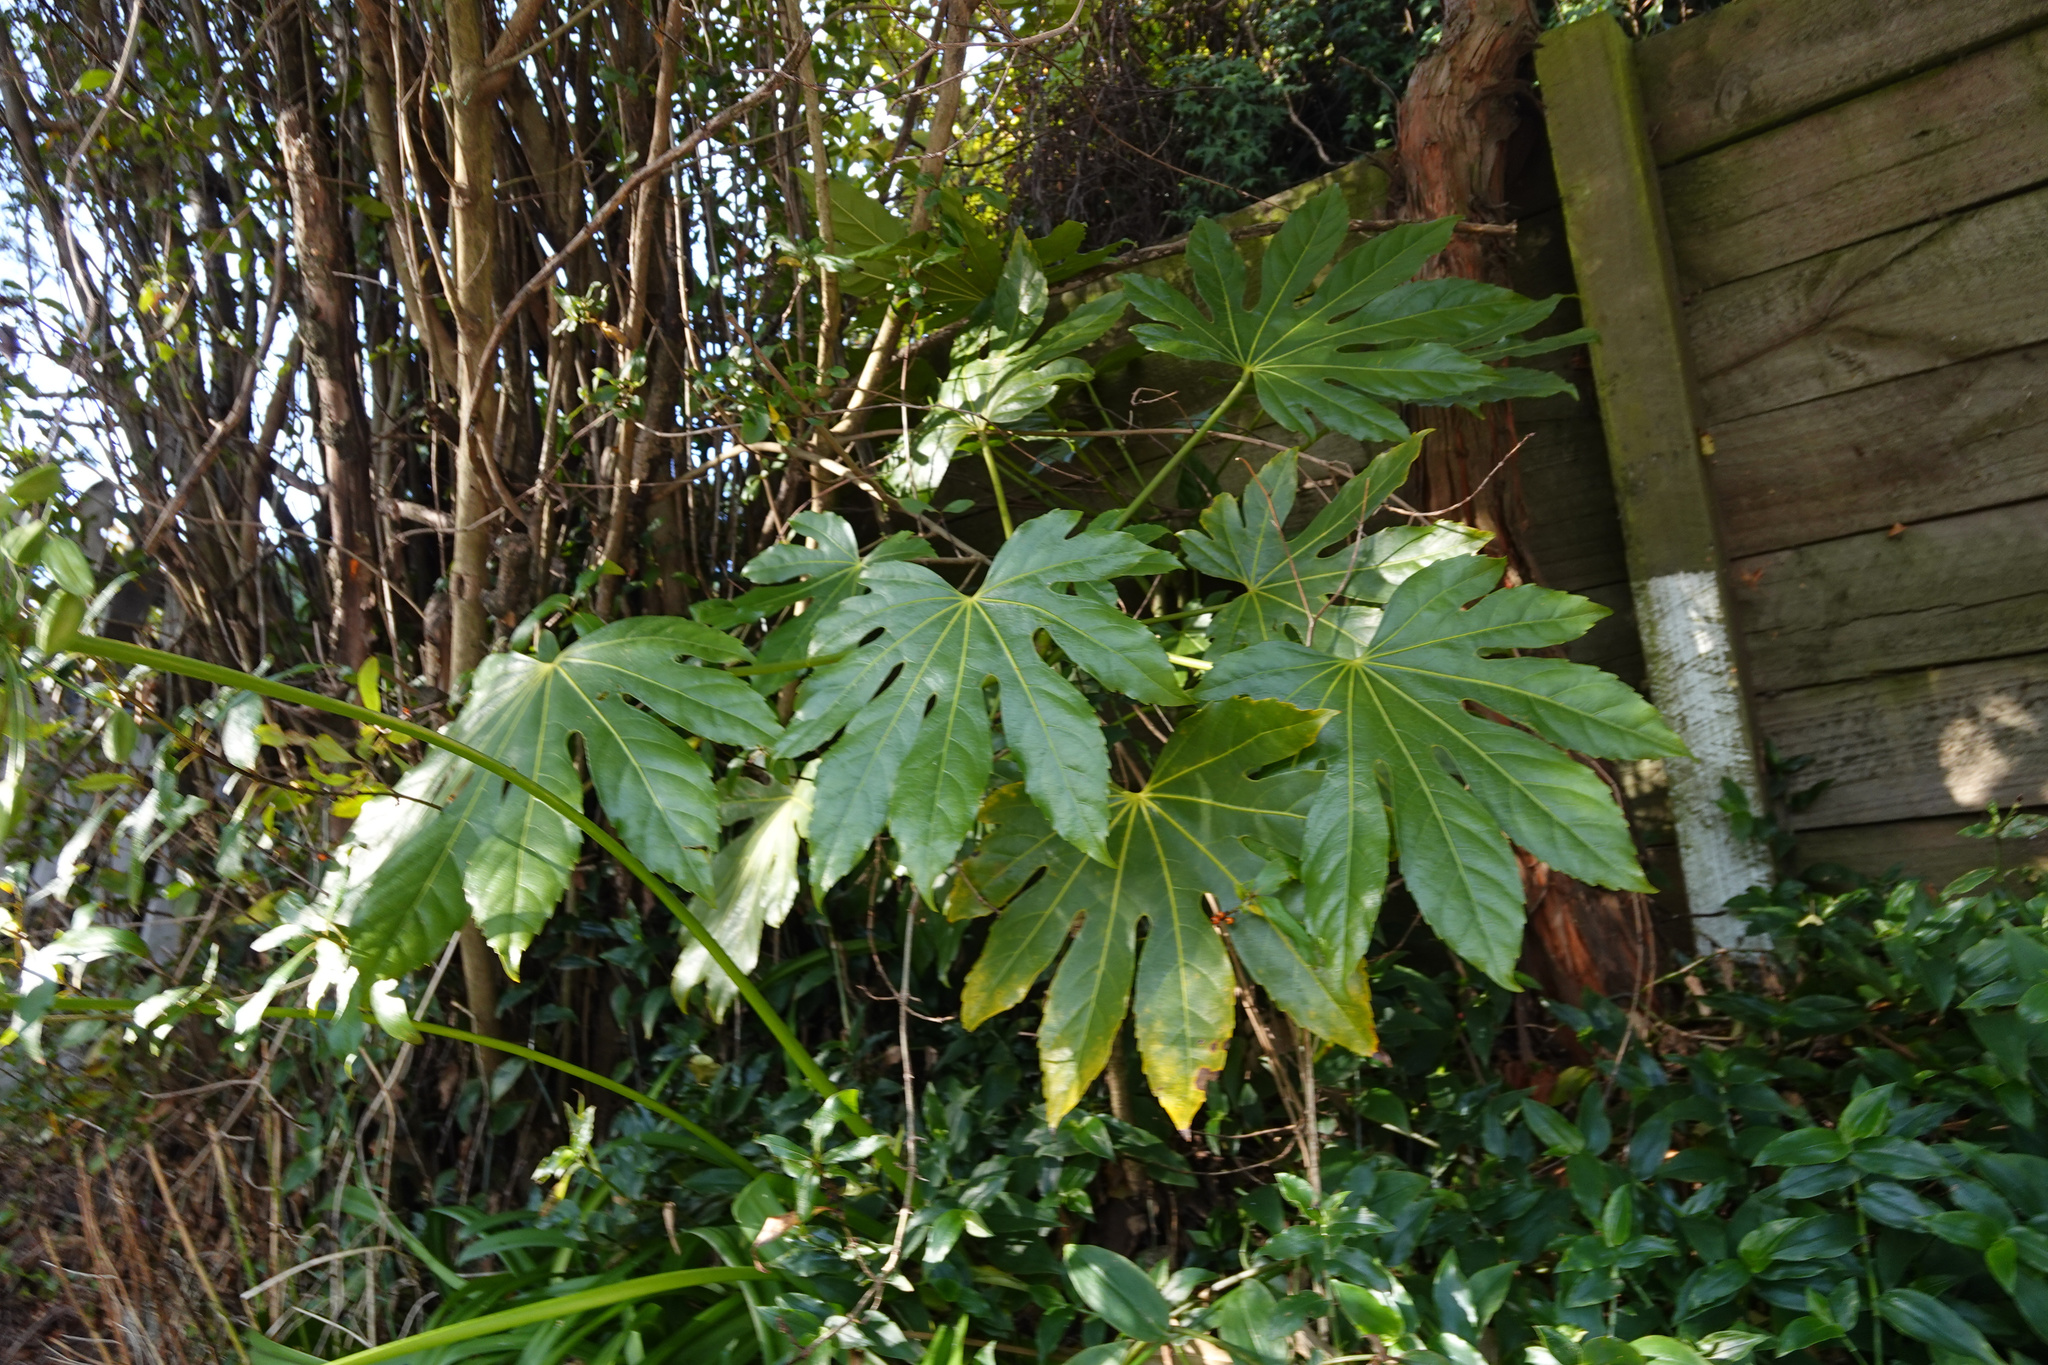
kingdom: Plantae
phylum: Tracheophyta
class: Magnoliopsida
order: Apiales
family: Araliaceae
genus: Fatsia
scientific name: Fatsia japonica
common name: Fatsia
